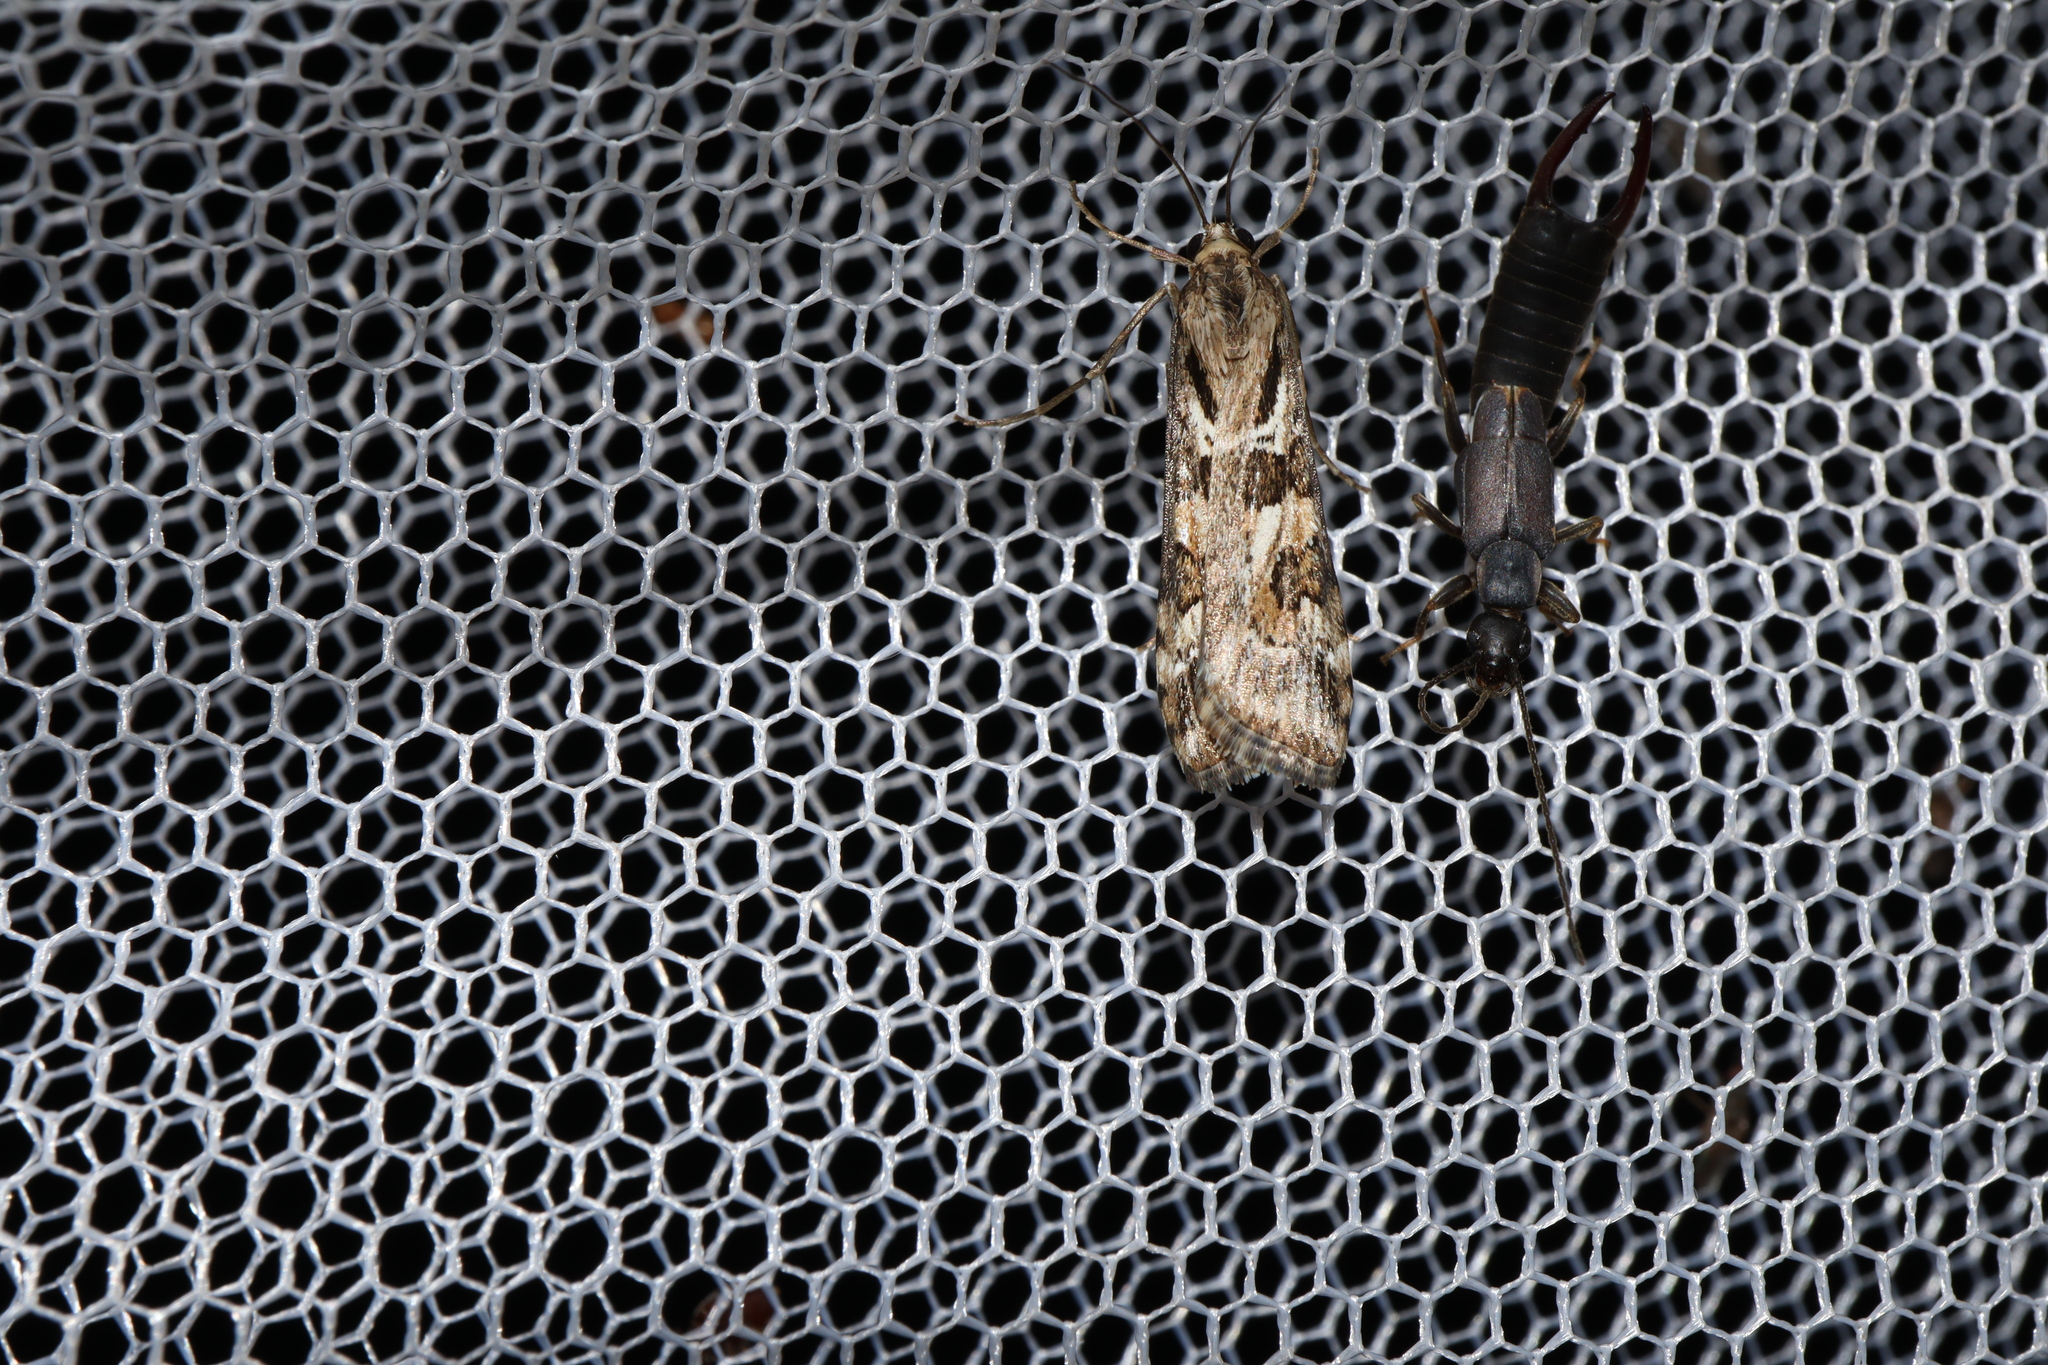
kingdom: Animalia
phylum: Arthropoda
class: Insecta
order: Lepidoptera
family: Crambidae
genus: Nomophila
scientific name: Nomophila corticalis
